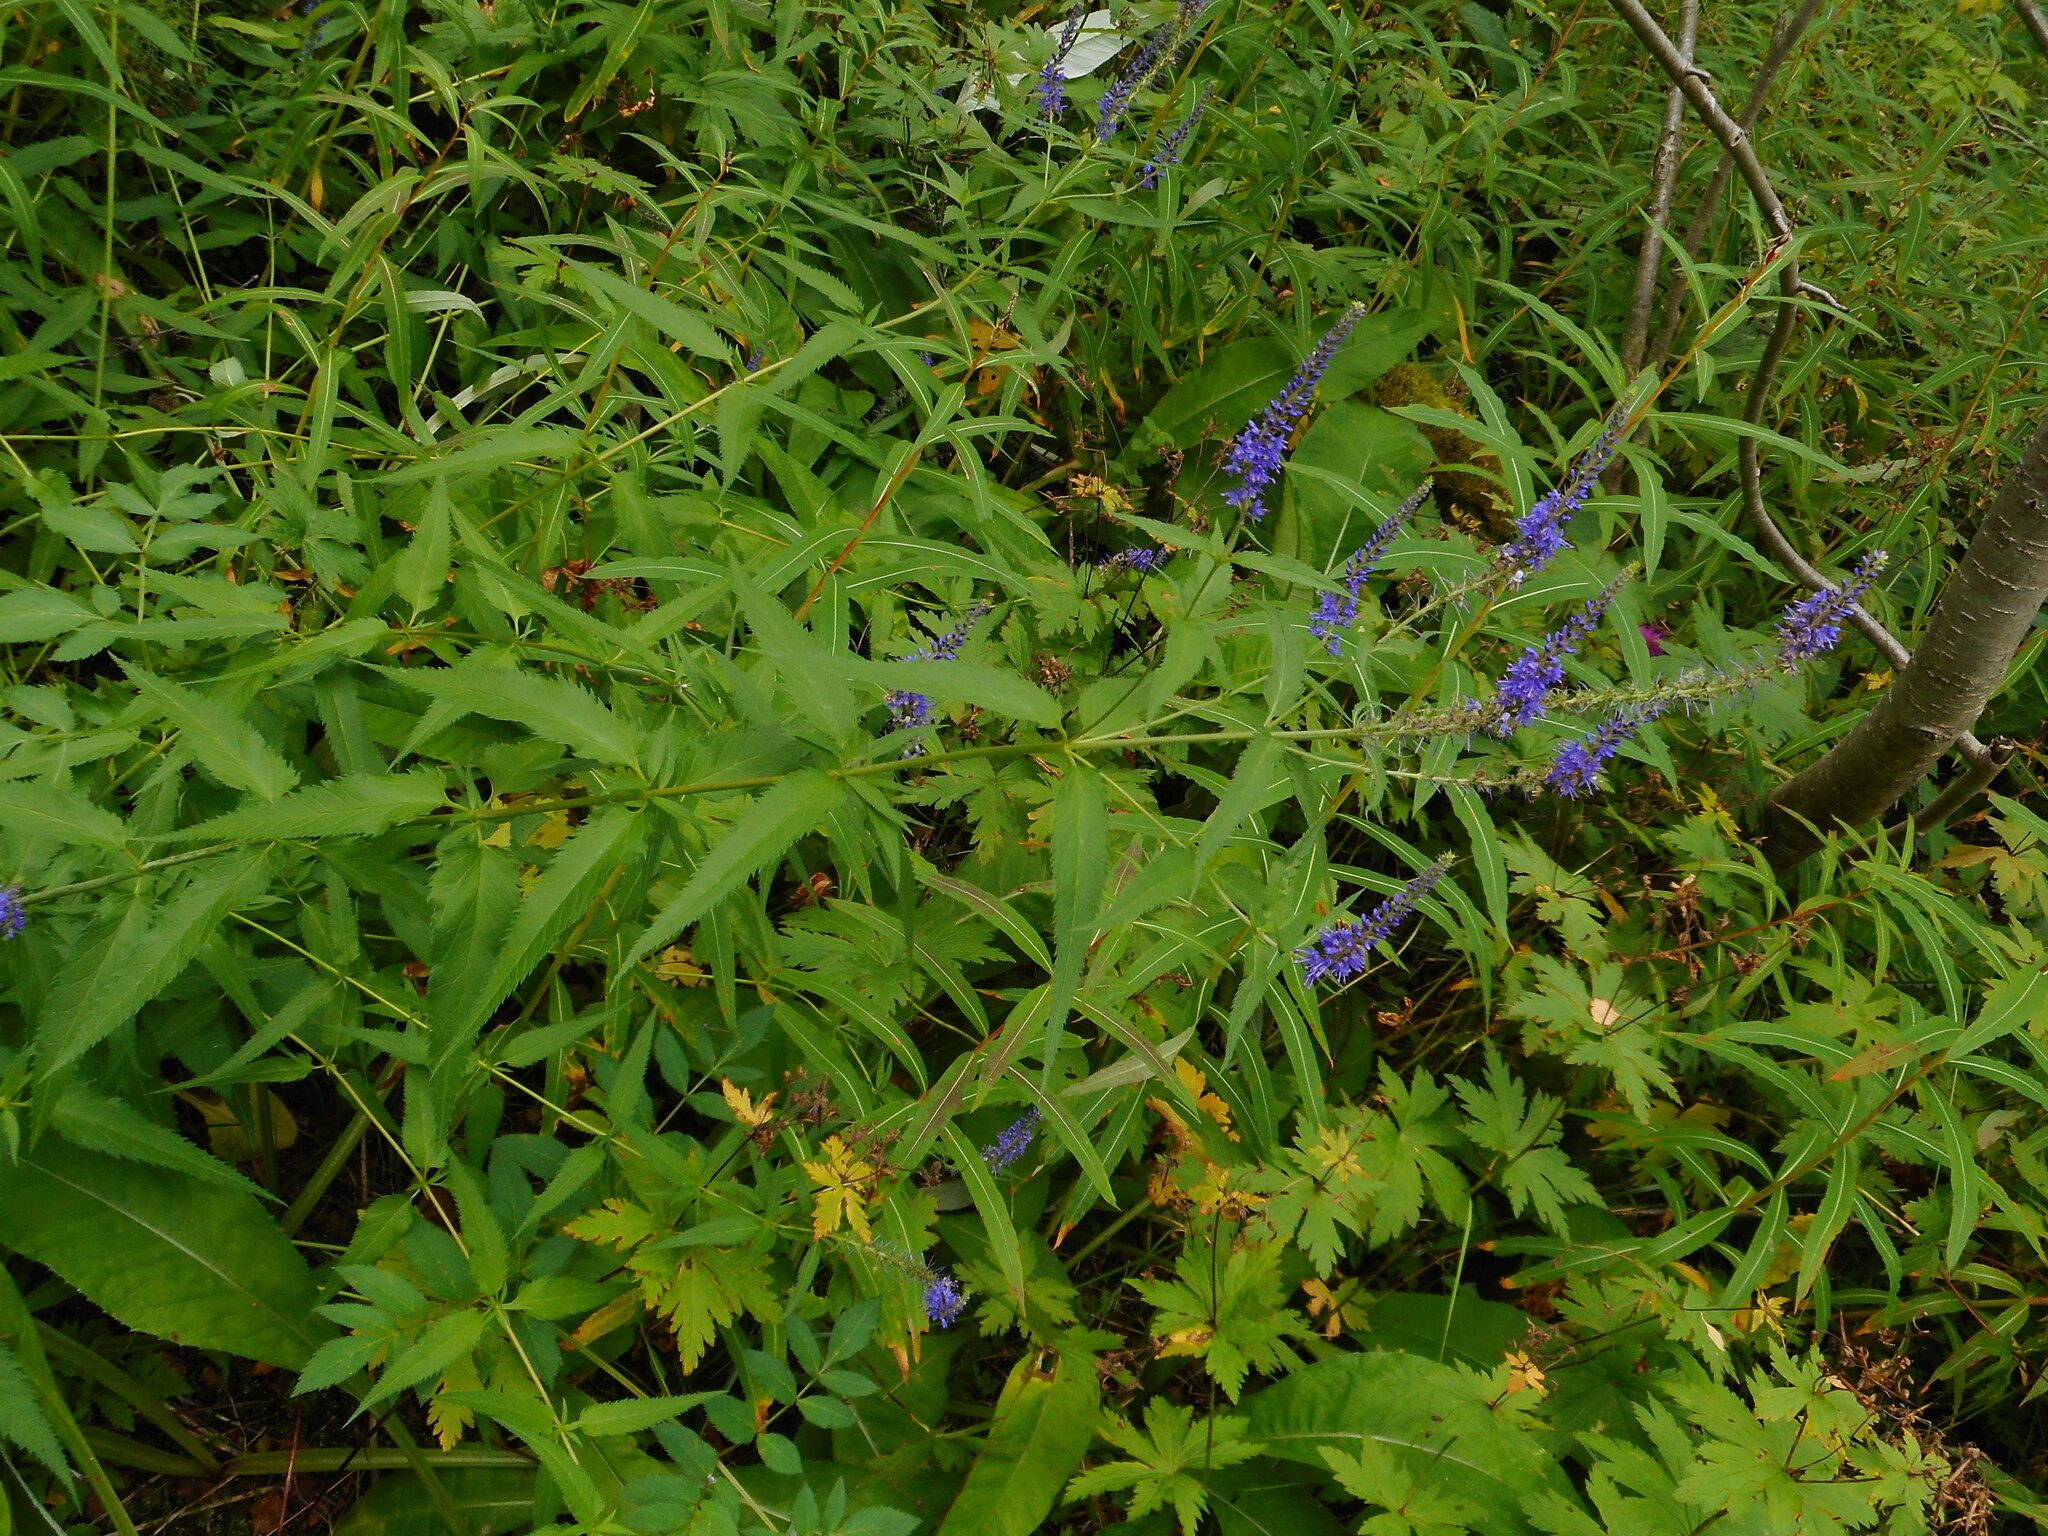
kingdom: Plantae
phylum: Tracheophyta
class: Magnoliopsida
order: Lamiales
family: Plantaginaceae
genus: Veronica
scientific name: Veronica longifolia
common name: Garden speedwell
